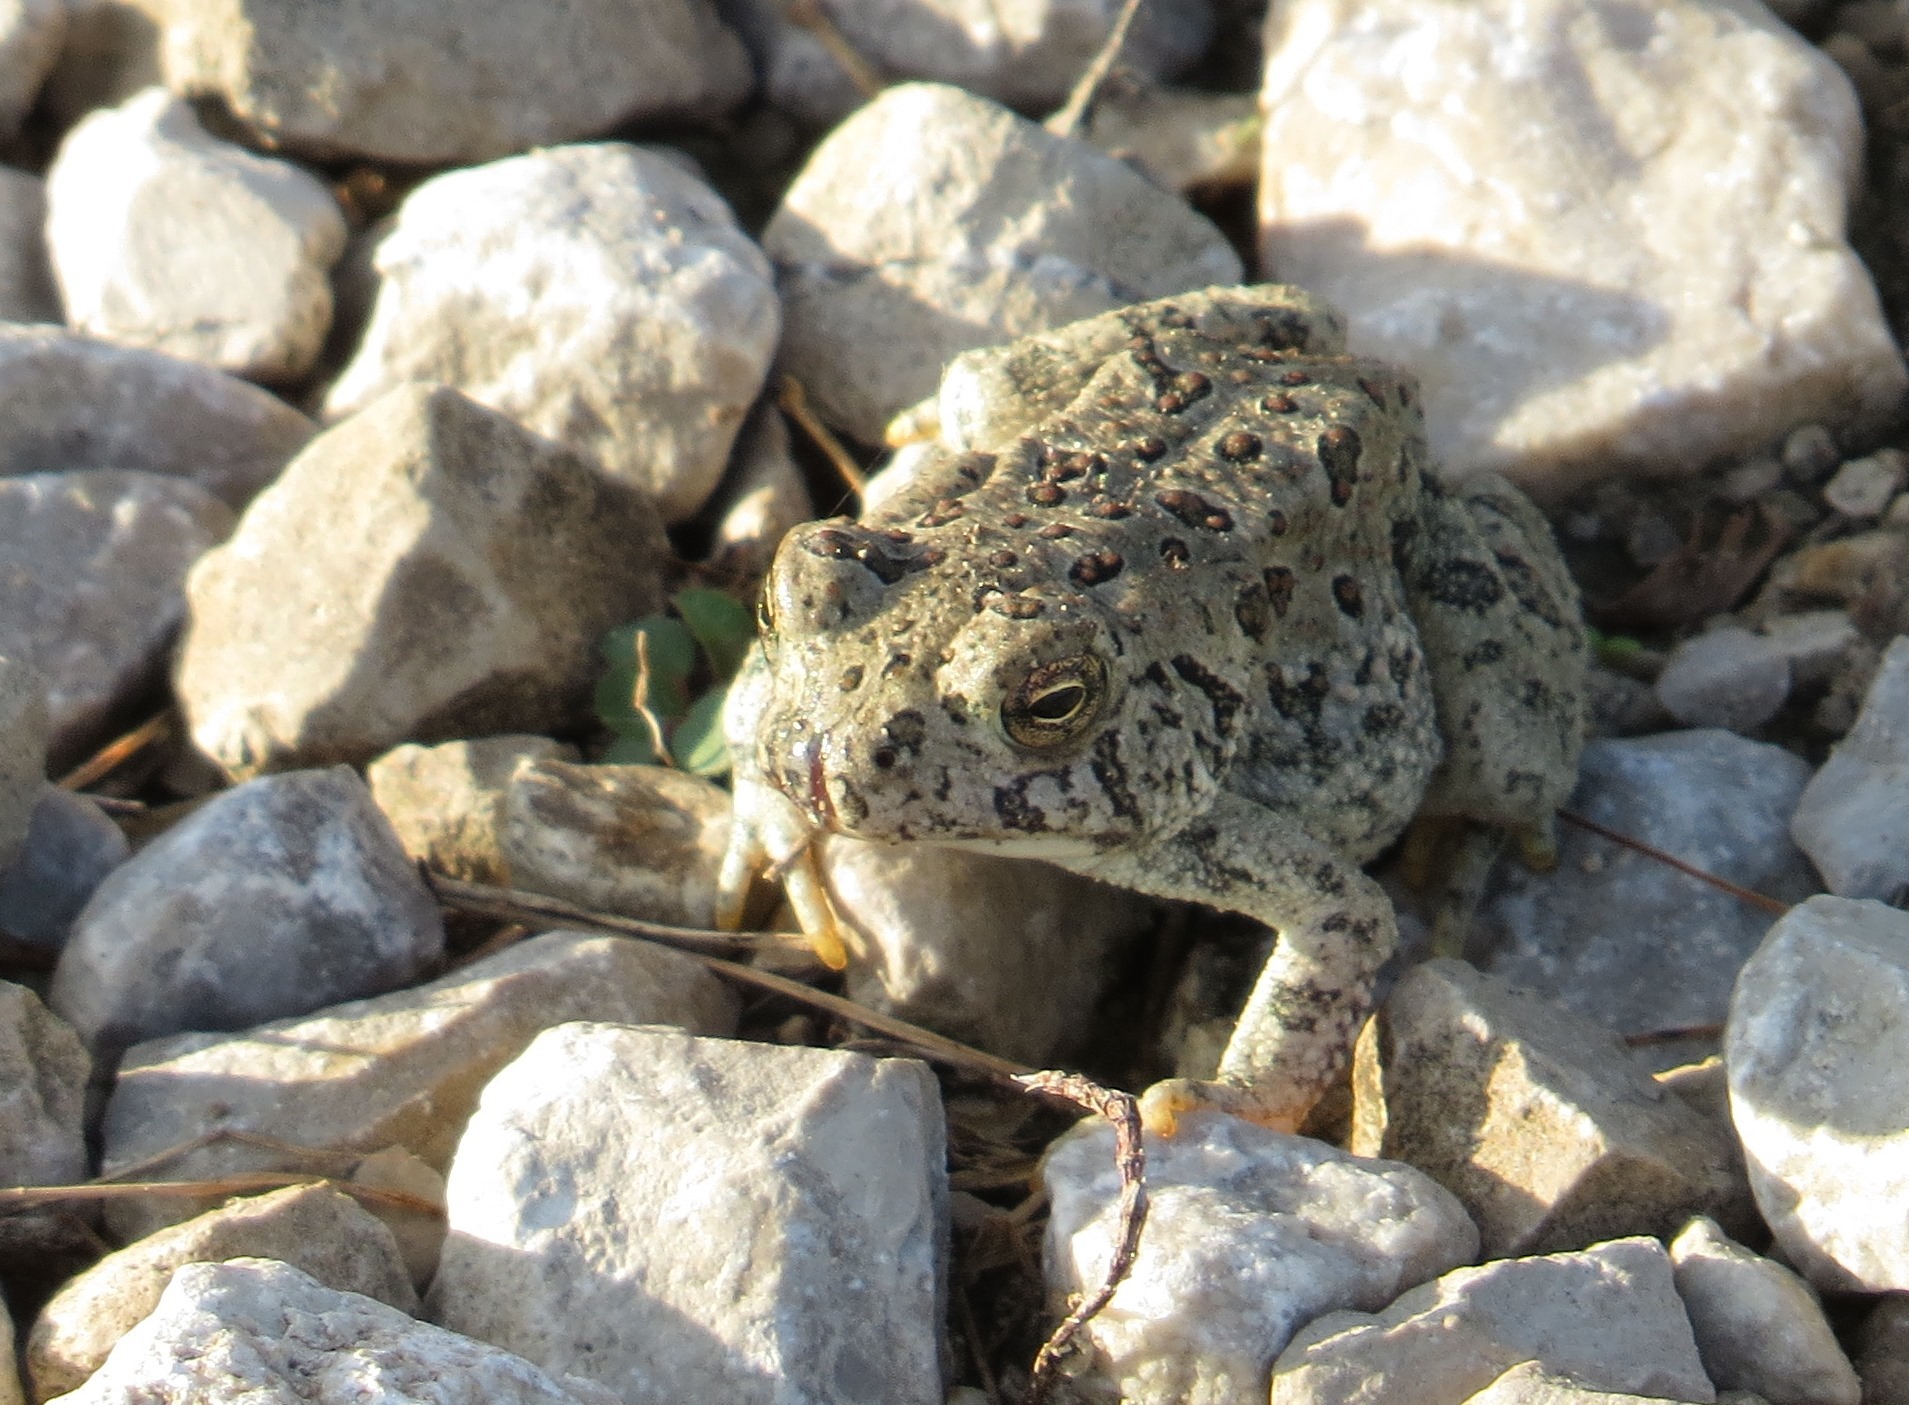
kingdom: Animalia
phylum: Chordata
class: Amphibia
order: Anura
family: Bufonidae
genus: Anaxyrus
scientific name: Anaxyrus fowleri
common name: Fowler's toad
